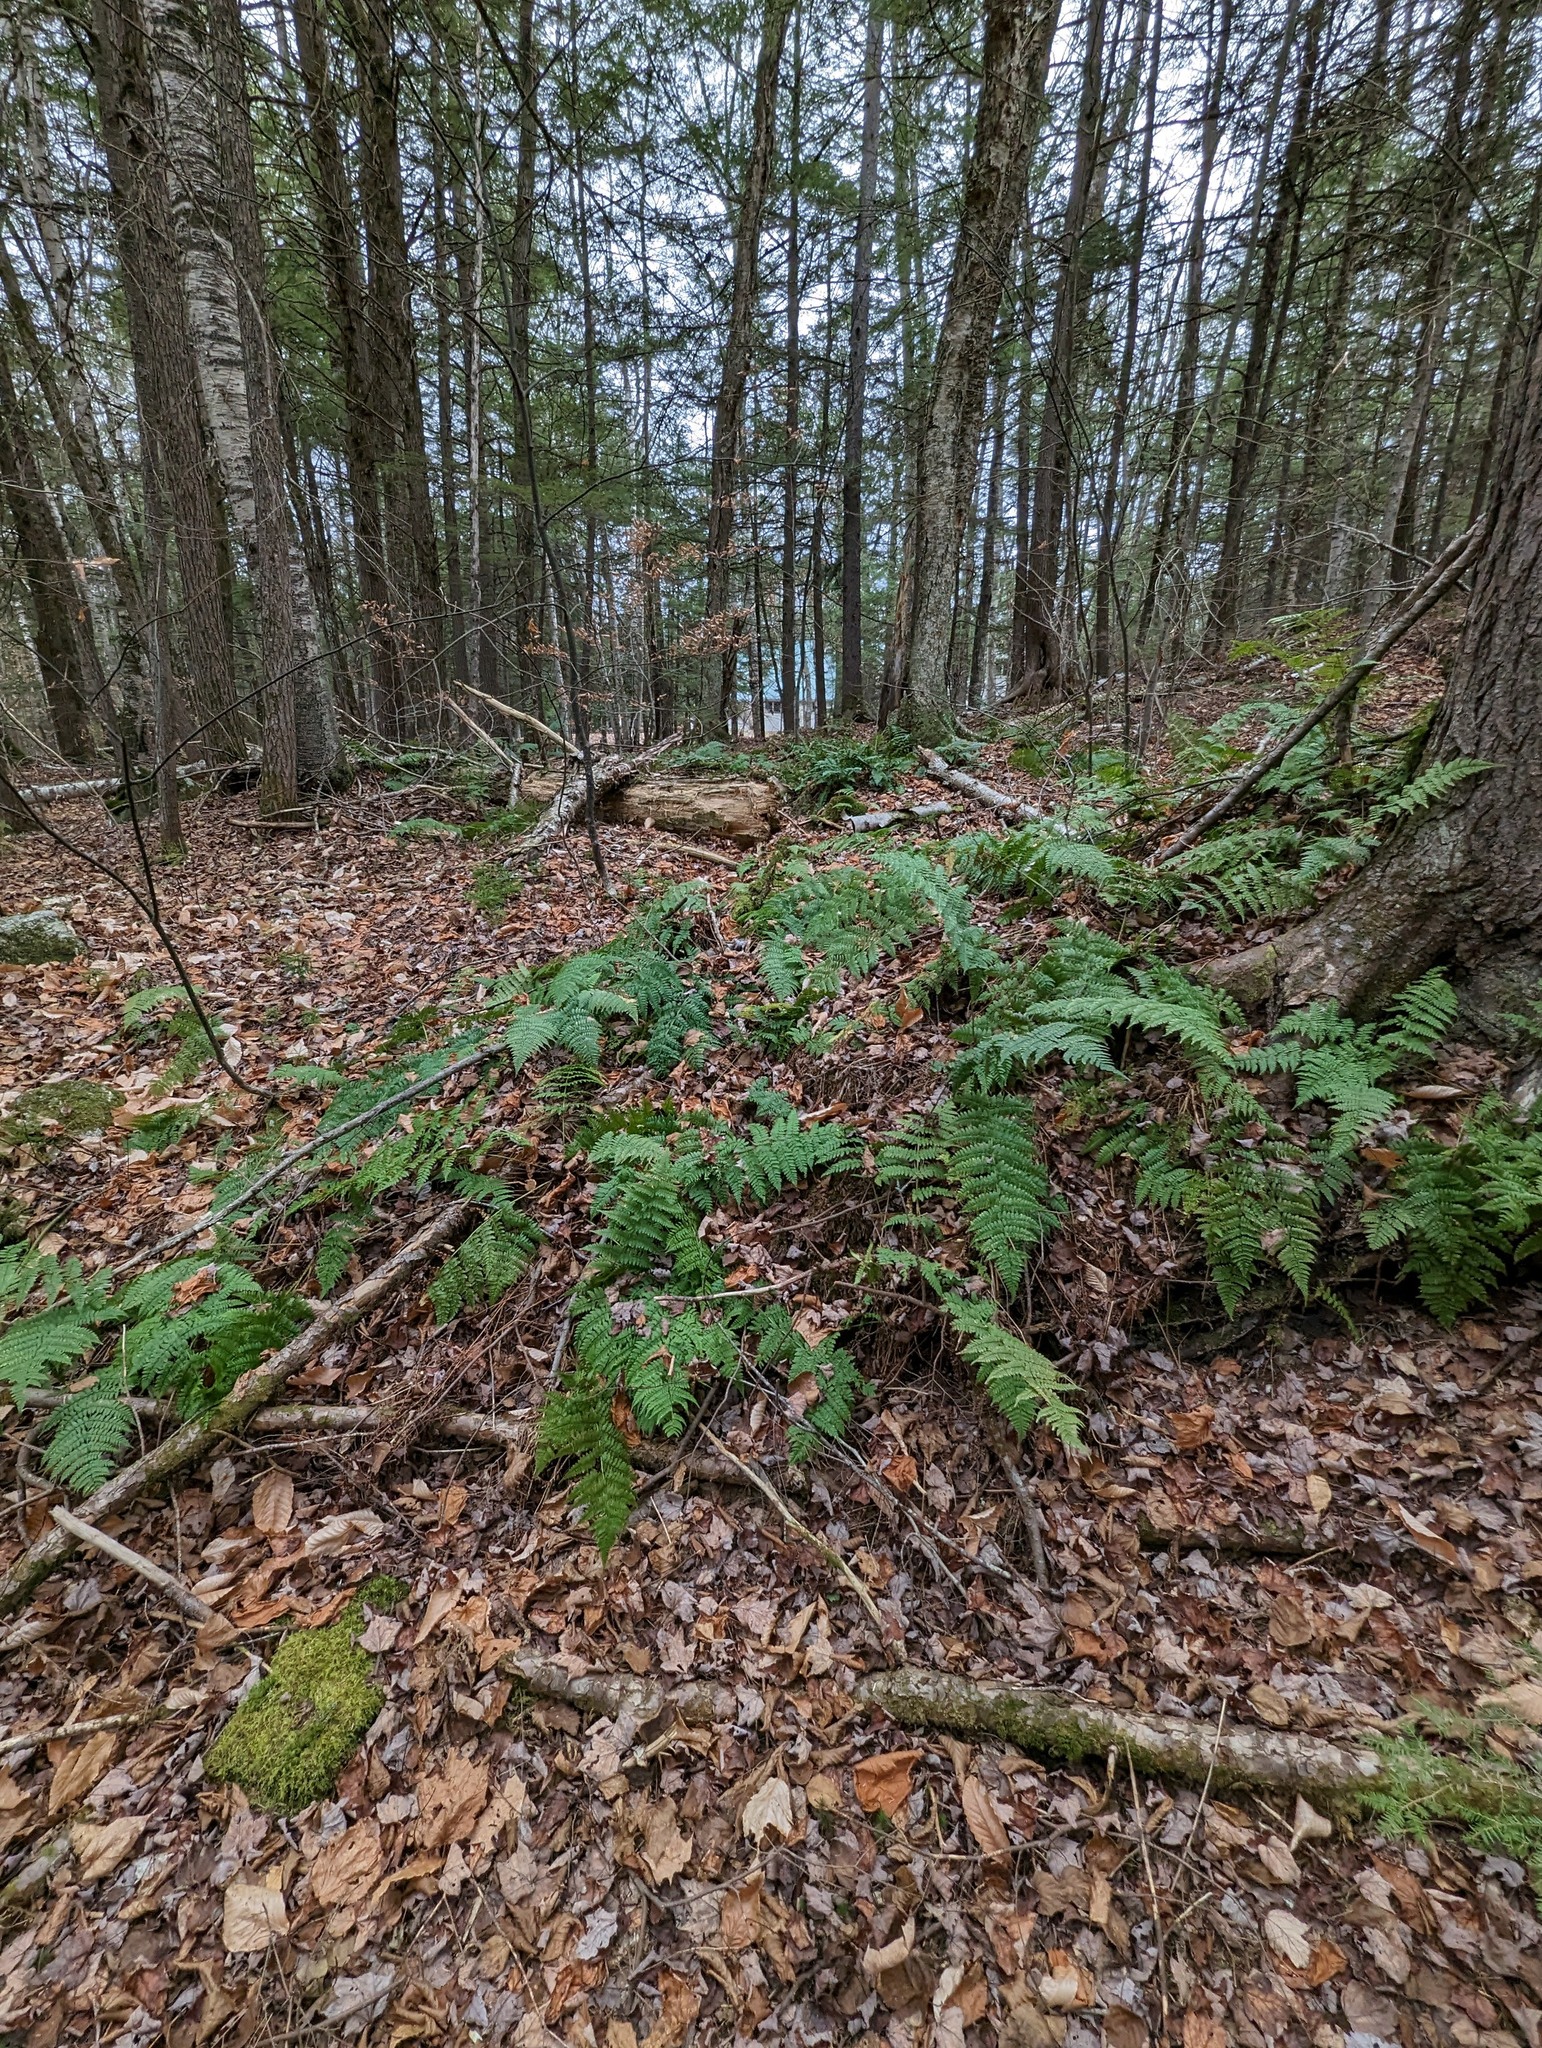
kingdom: Plantae
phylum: Tracheophyta
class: Polypodiopsida
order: Polypodiales
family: Dryopteridaceae
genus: Dryopteris
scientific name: Dryopteris intermedia
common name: Evergreen wood fern
